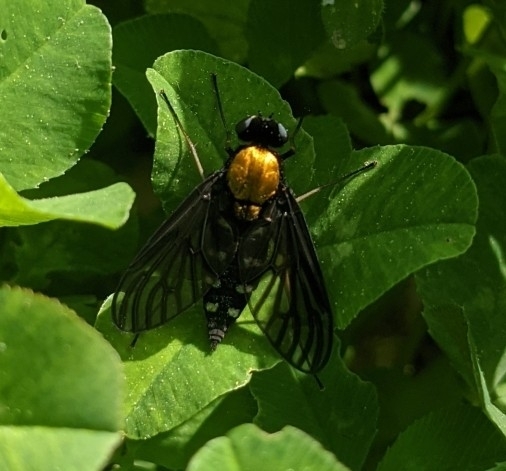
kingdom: Animalia
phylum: Arthropoda
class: Insecta
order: Diptera
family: Rhagionidae
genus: Chrysopilus
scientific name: Chrysopilus thoracicus
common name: Golden-backed snipe fly
